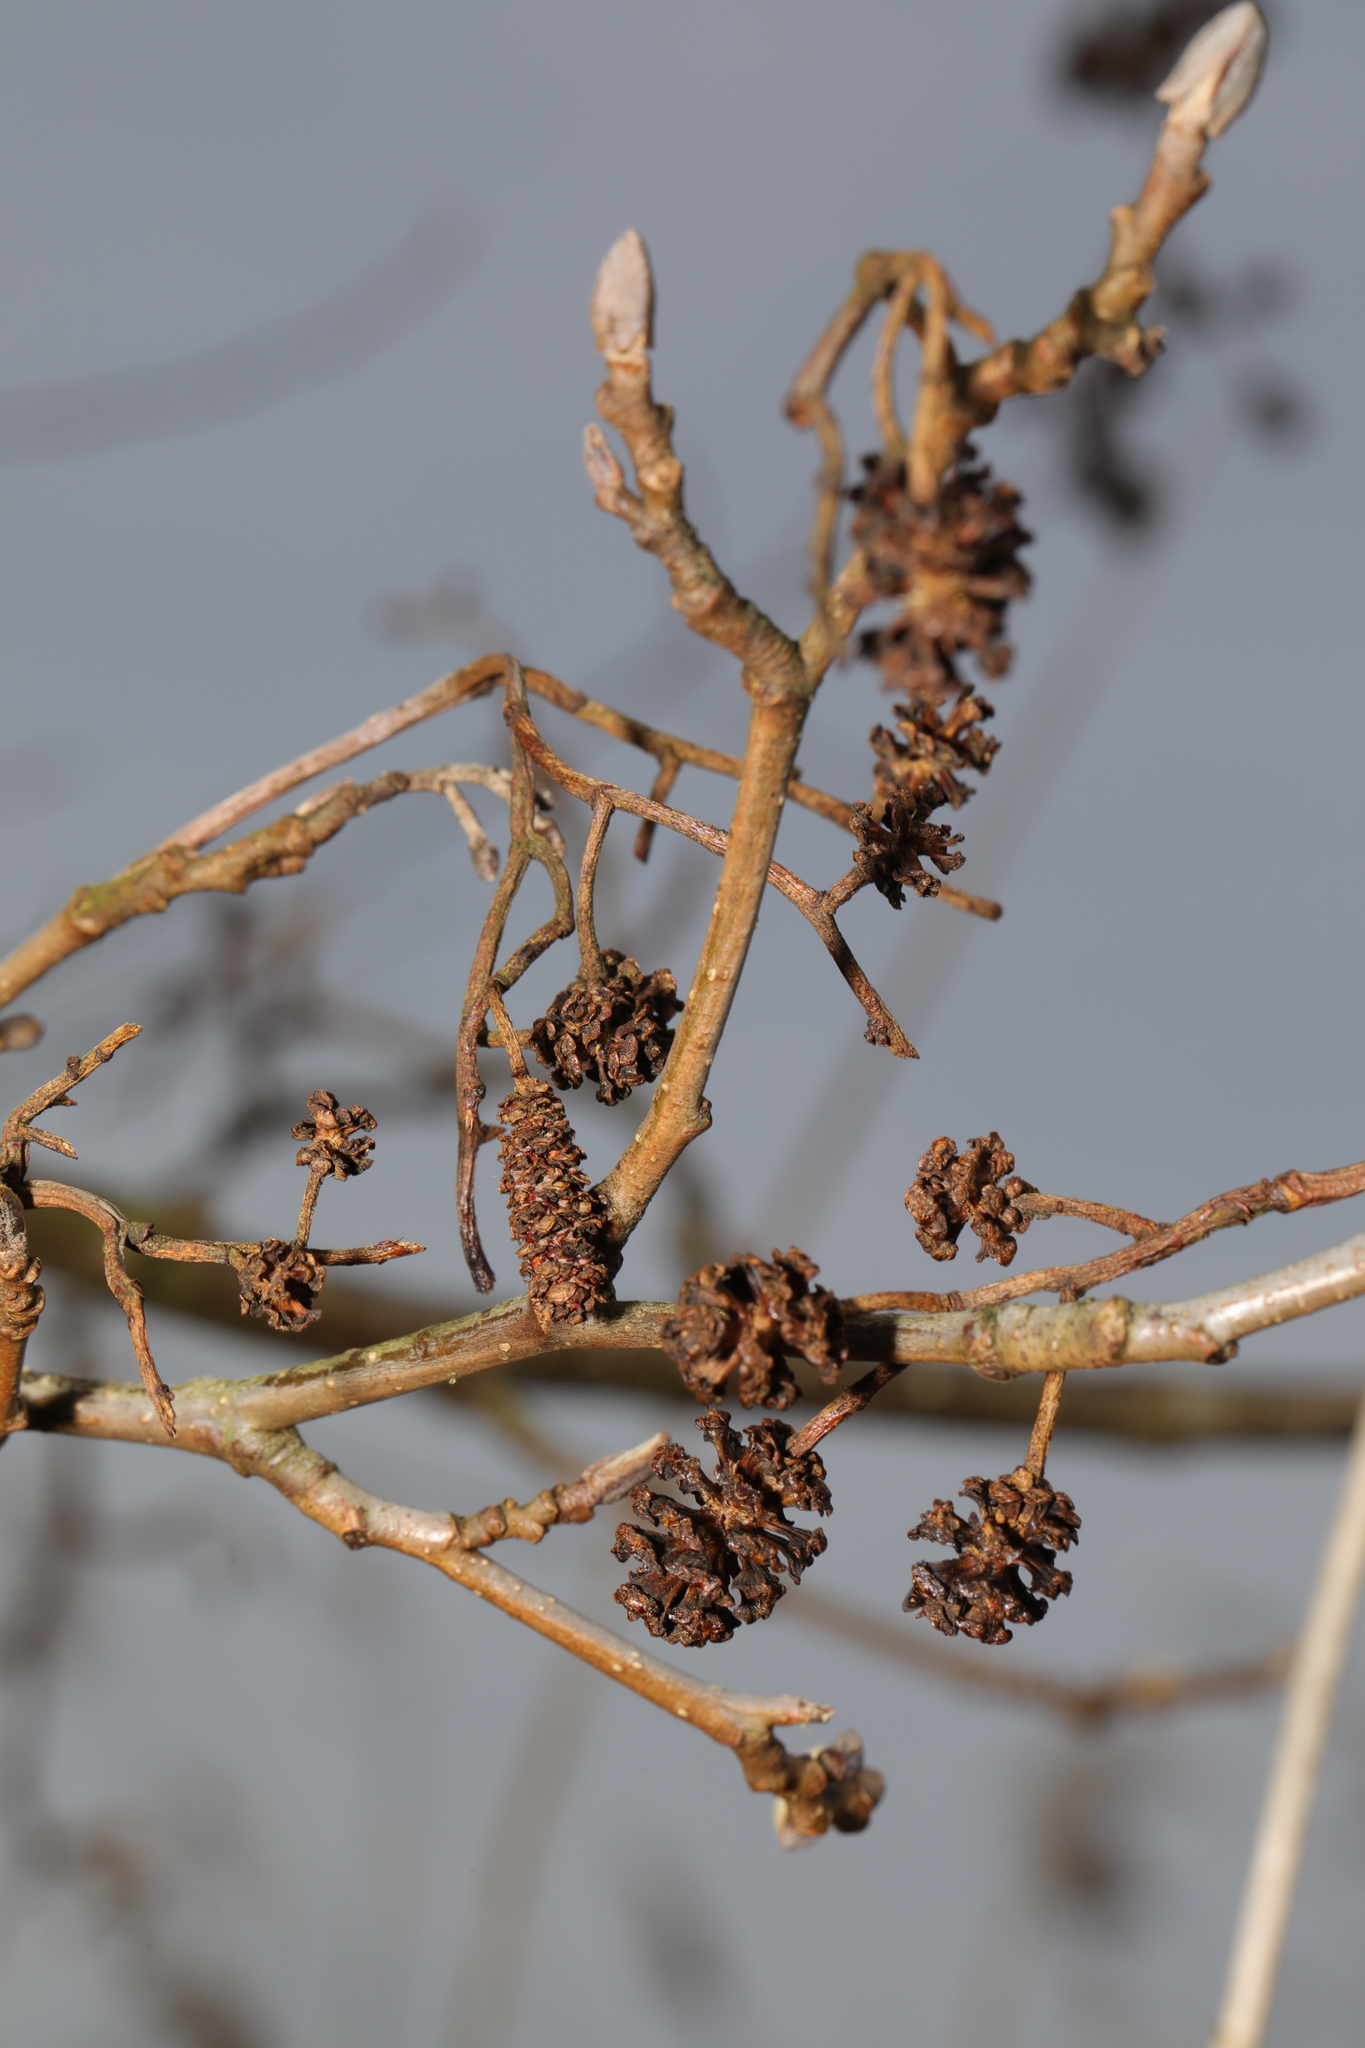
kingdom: Plantae
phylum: Tracheophyta
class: Magnoliopsida
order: Fagales
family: Betulaceae
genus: Alnus
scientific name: Alnus glutinosa
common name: Black alder
